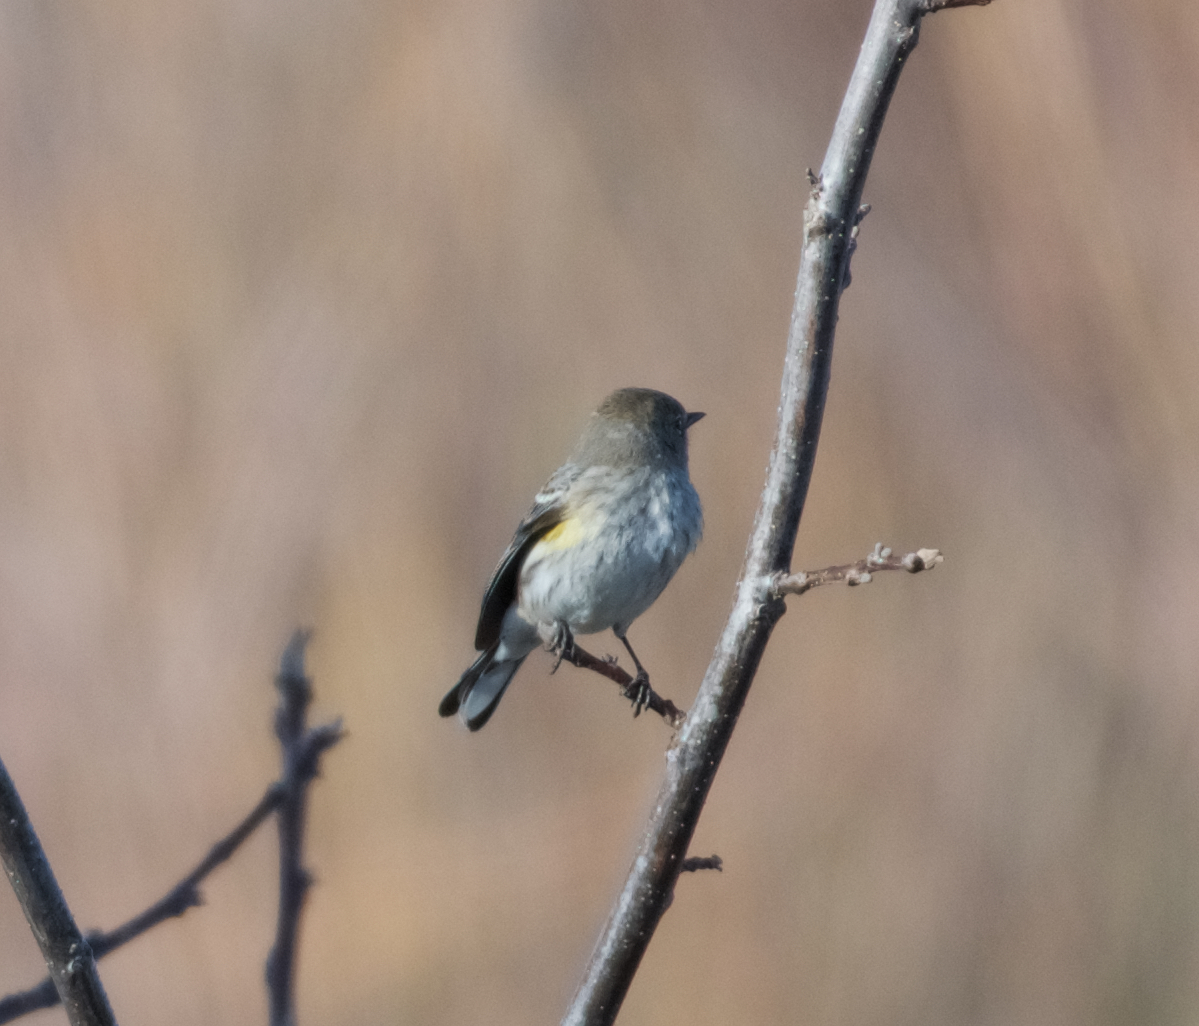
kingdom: Animalia
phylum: Chordata
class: Aves
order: Passeriformes
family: Parulidae
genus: Setophaga
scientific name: Setophaga coronata
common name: Myrtle warbler
